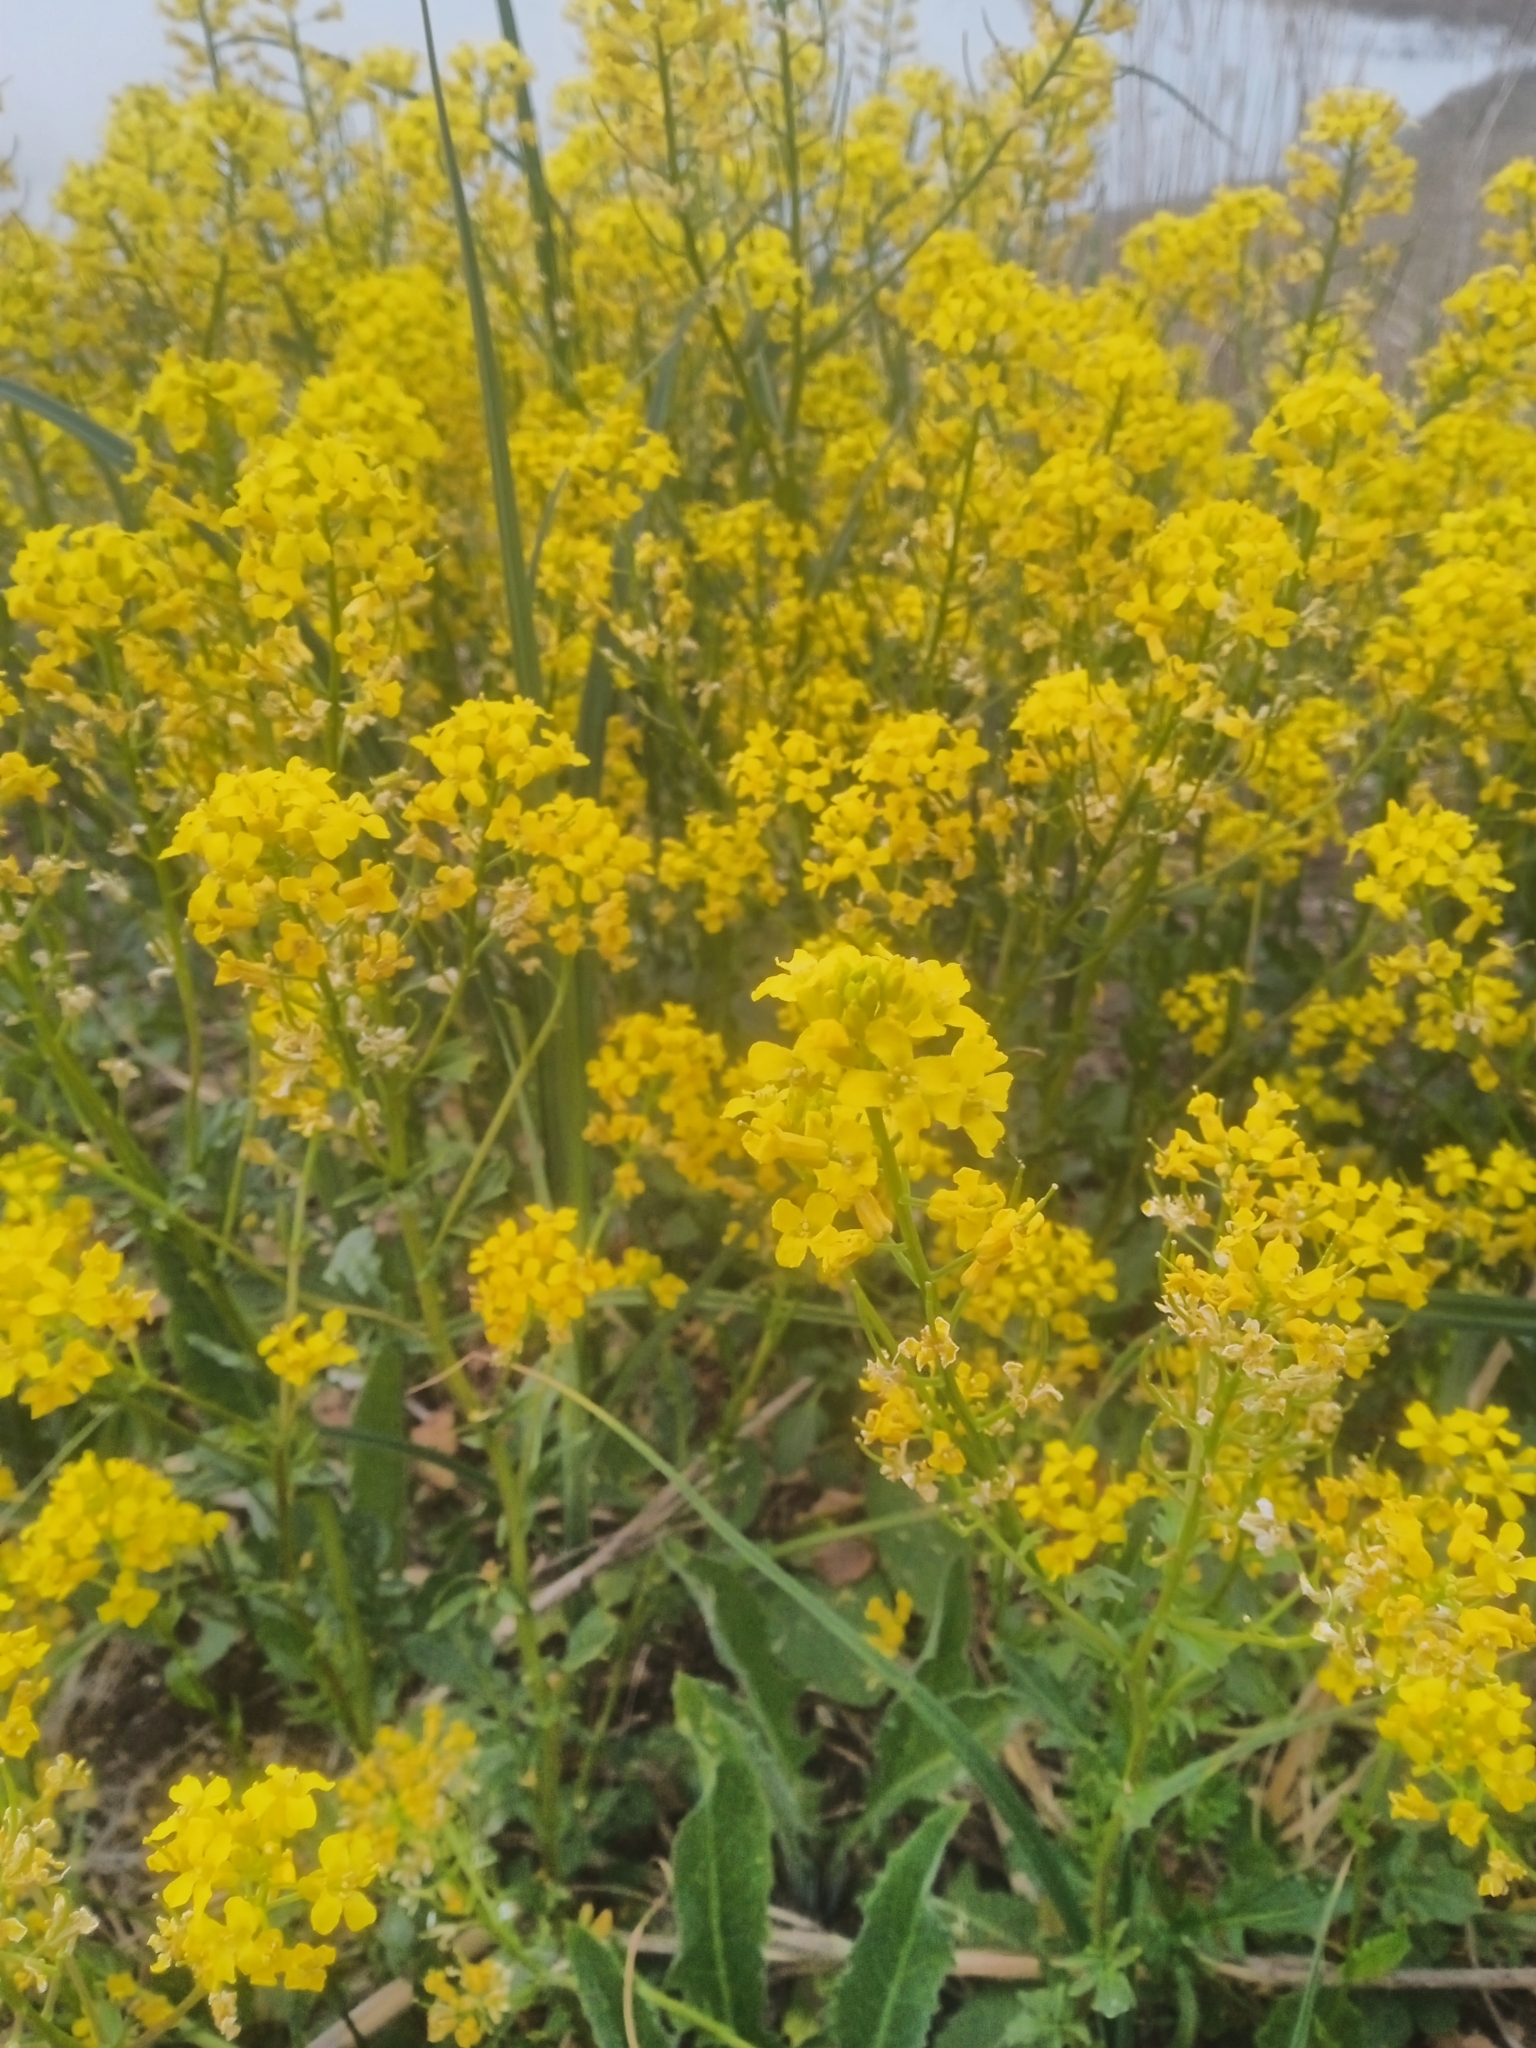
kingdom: Plantae
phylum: Tracheophyta
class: Magnoliopsida
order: Brassicales
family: Brassicaceae
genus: Barbarea
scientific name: Barbarea vulgaris
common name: Cressy-greens
